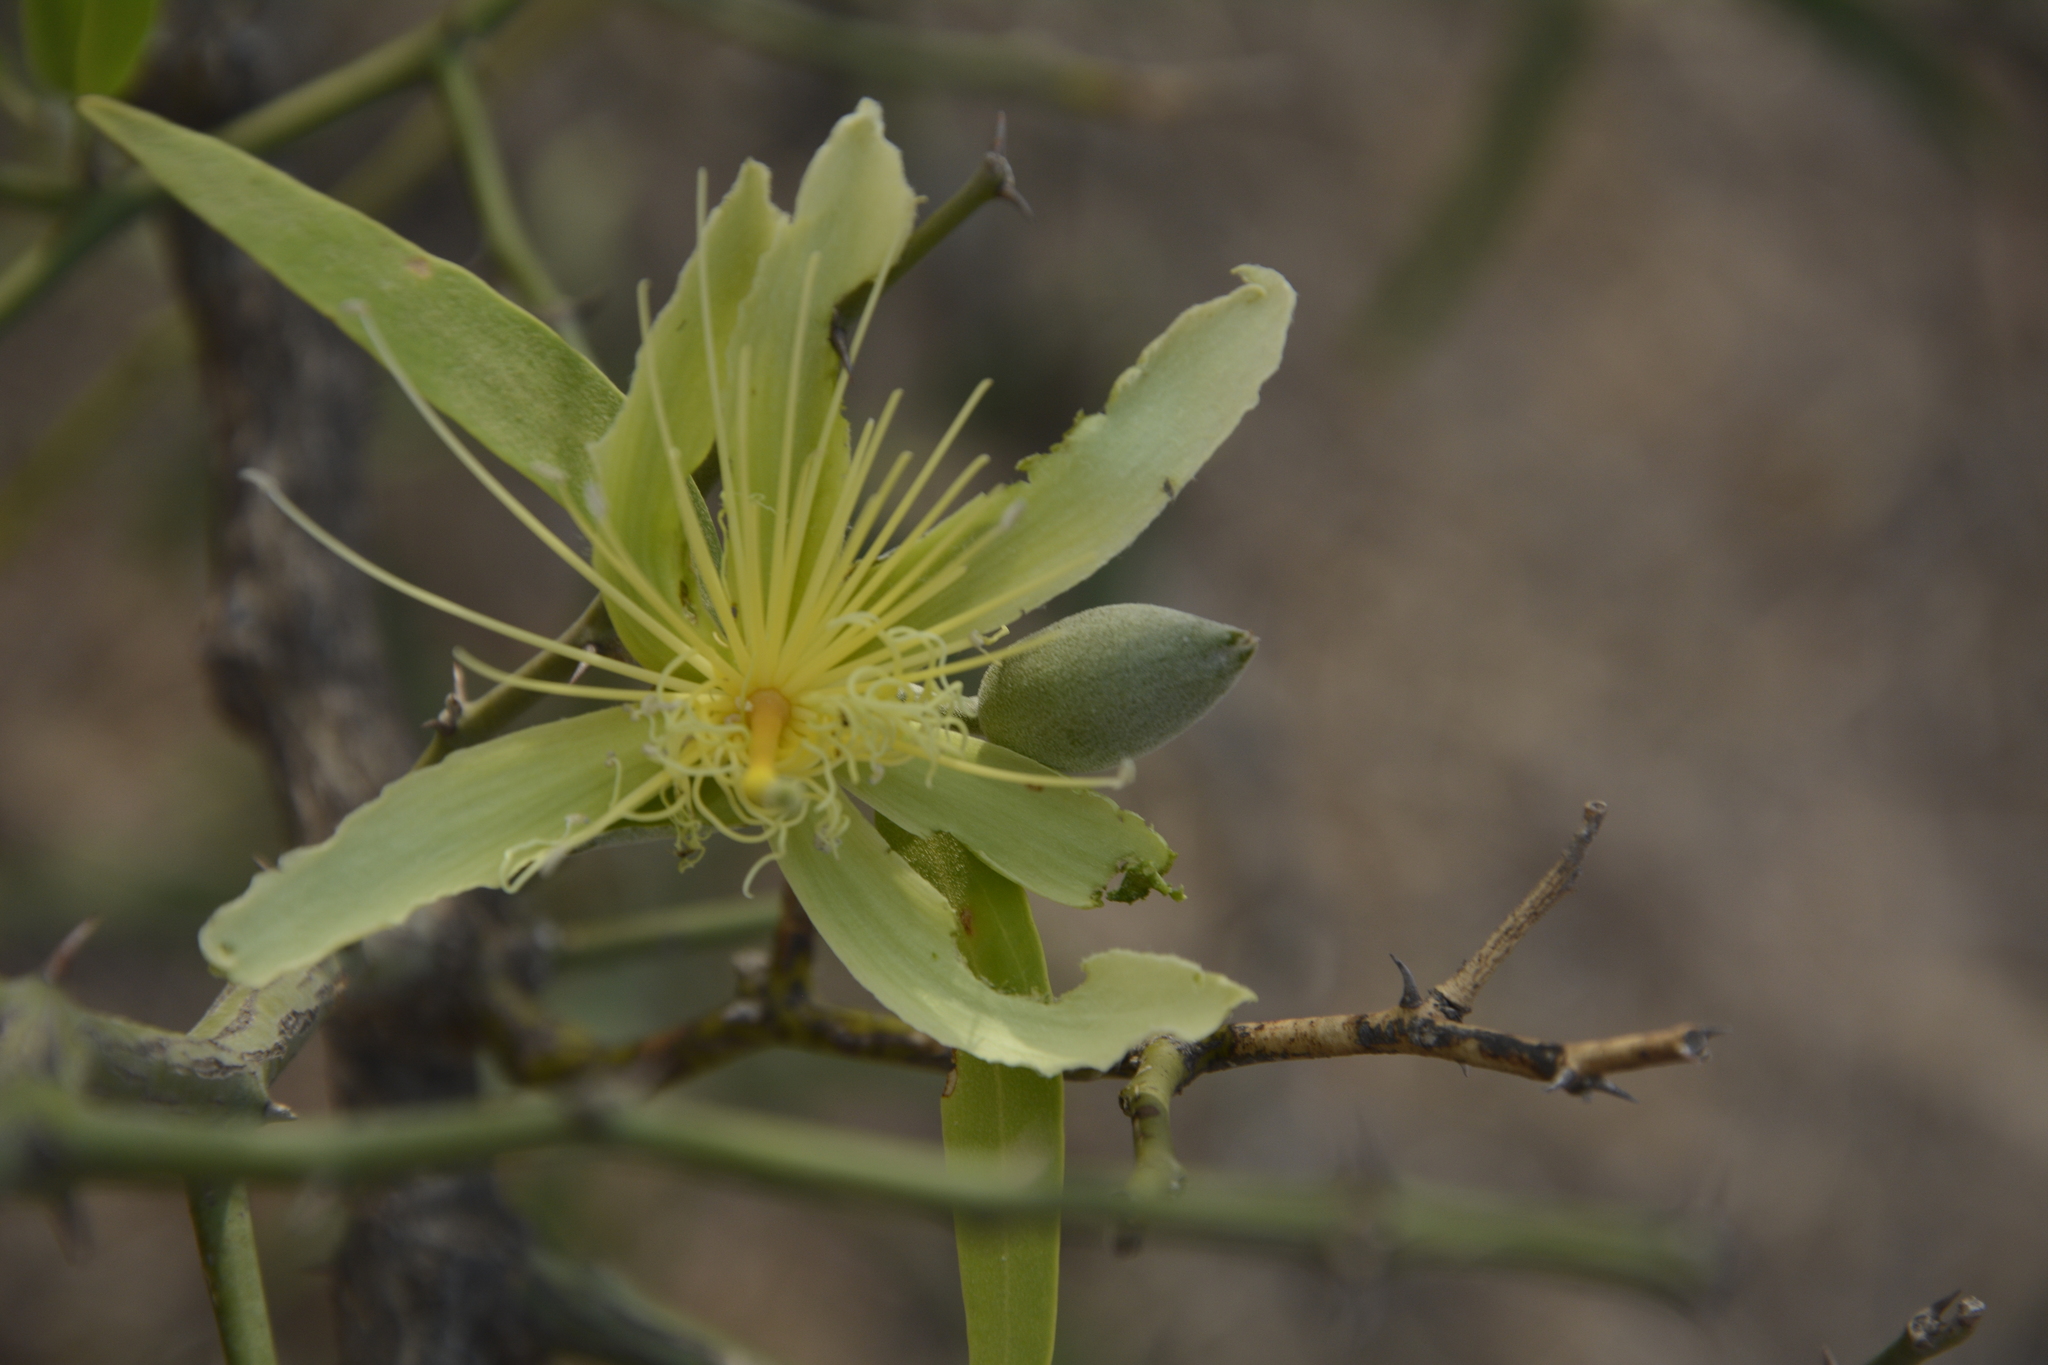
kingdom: Plantae
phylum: Tracheophyta
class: Magnoliopsida
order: Brassicales
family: Capparaceae
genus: Capparis
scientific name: Capparis divaricata
